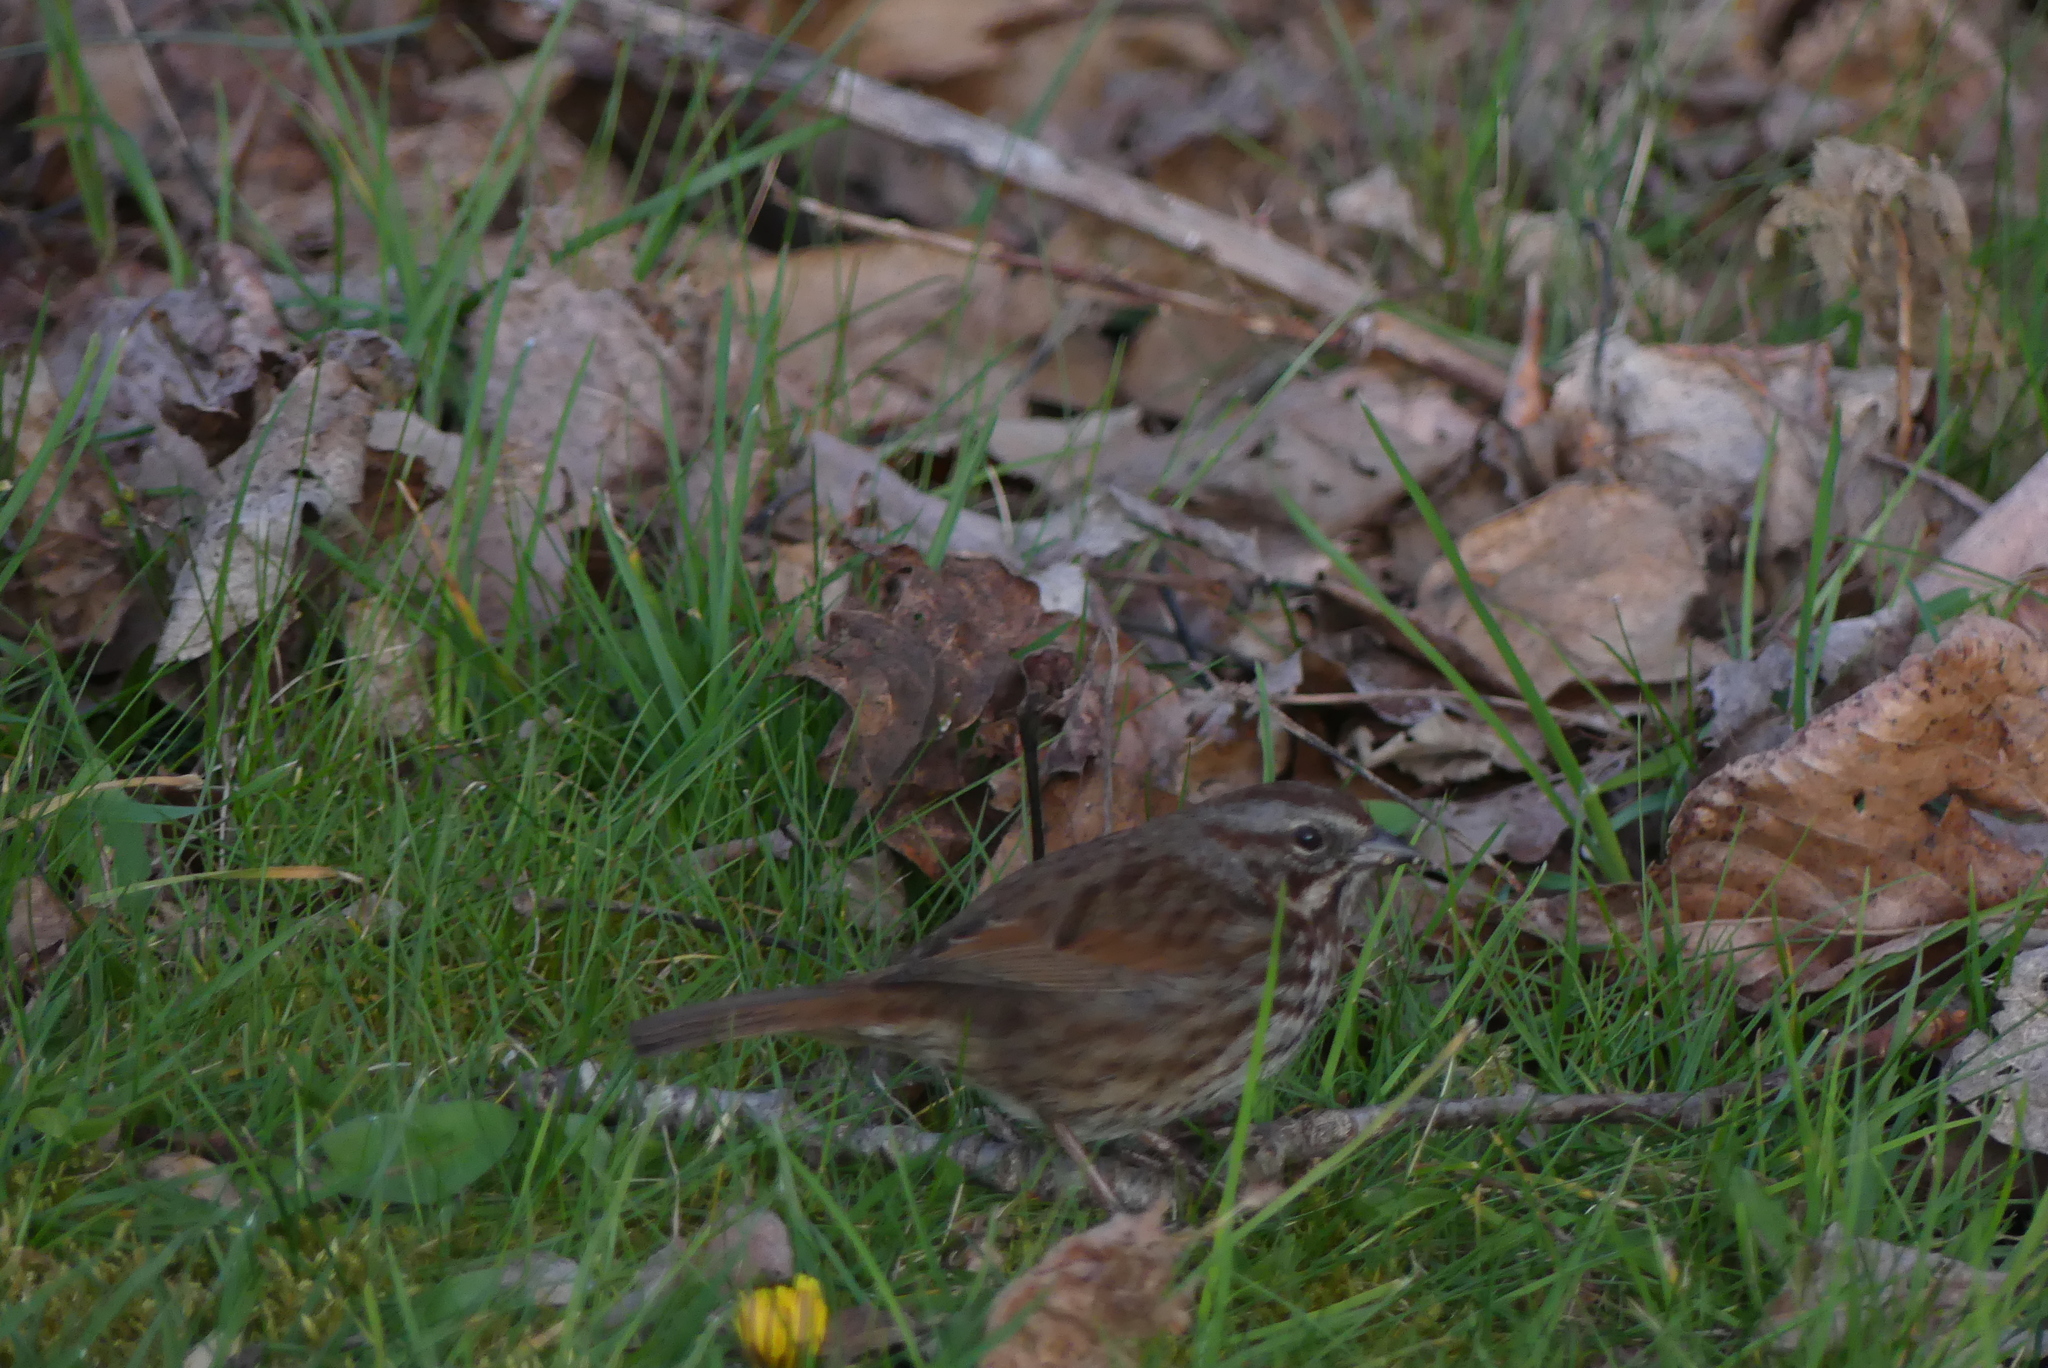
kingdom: Animalia
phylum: Chordata
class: Aves
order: Passeriformes
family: Passerellidae
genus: Melospiza
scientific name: Melospiza melodia
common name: Song sparrow
